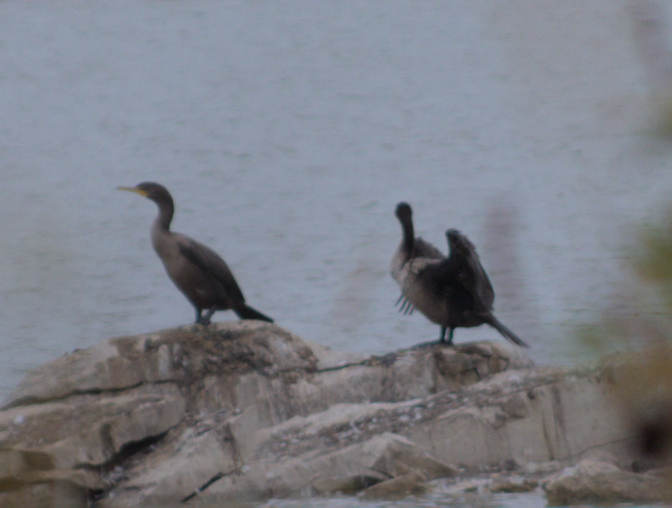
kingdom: Animalia
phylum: Chordata
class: Aves
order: Suliformes
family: Phalacrocoracidae
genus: Phalacrocorax
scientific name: Phalacrocorax auritus
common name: Double-crested cormorant
